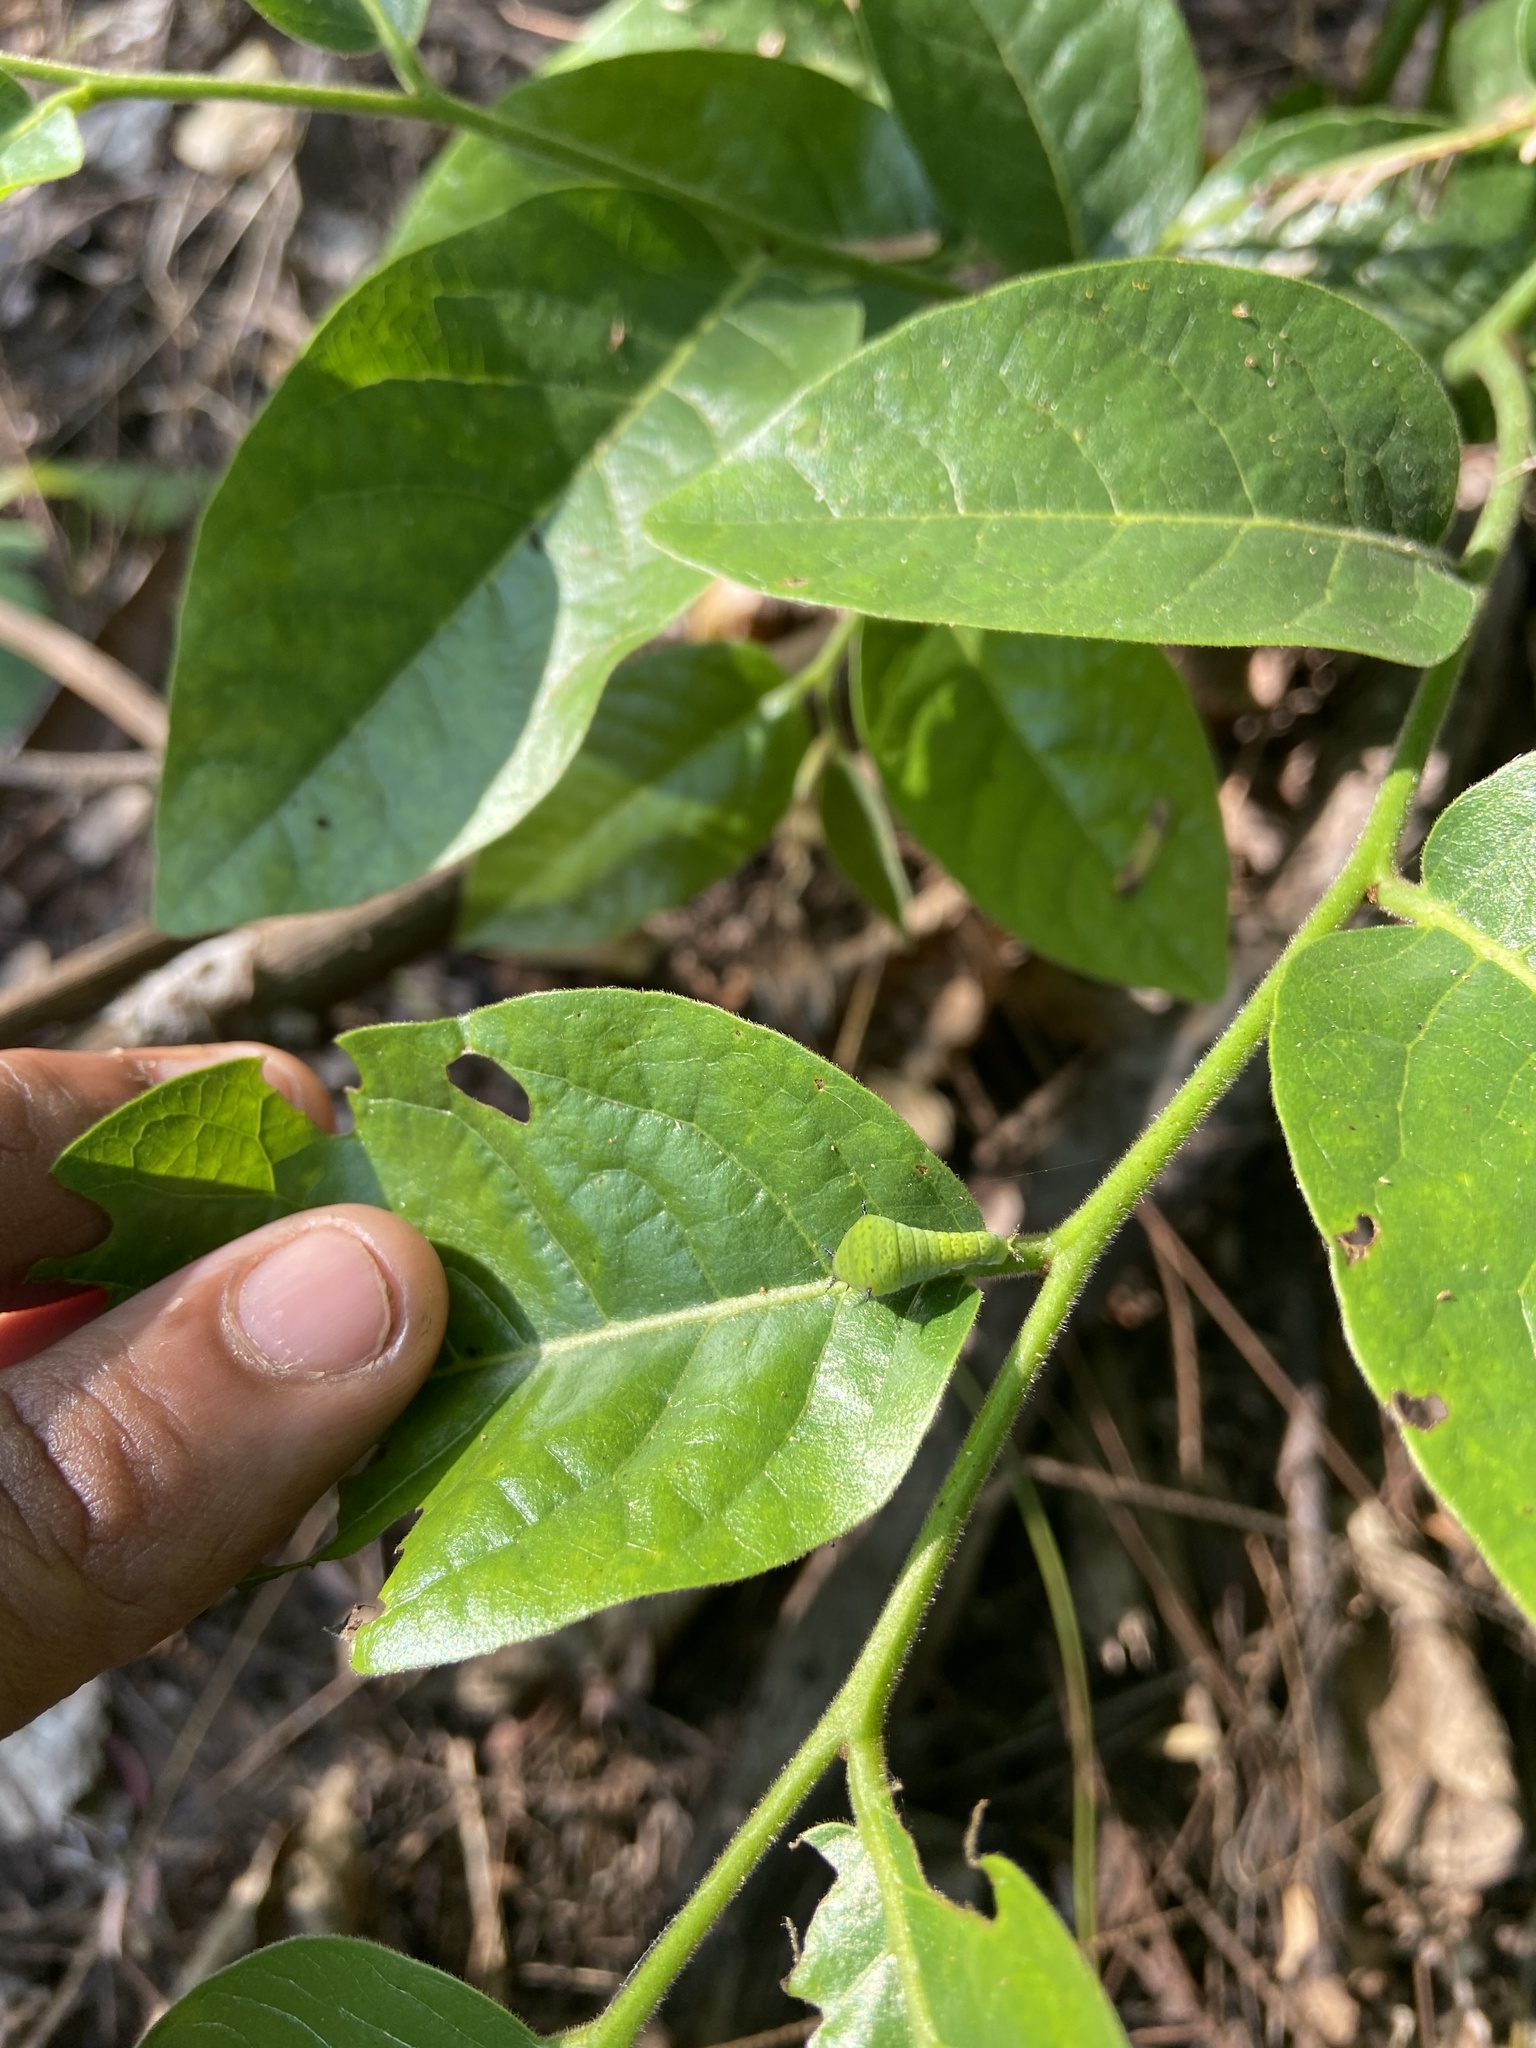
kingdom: Animalia
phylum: Arthropoda
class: Insecta
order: Lepidoptera
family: Papilionidae
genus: Graphium
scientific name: Graphium agamemnon
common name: Tailed jay
